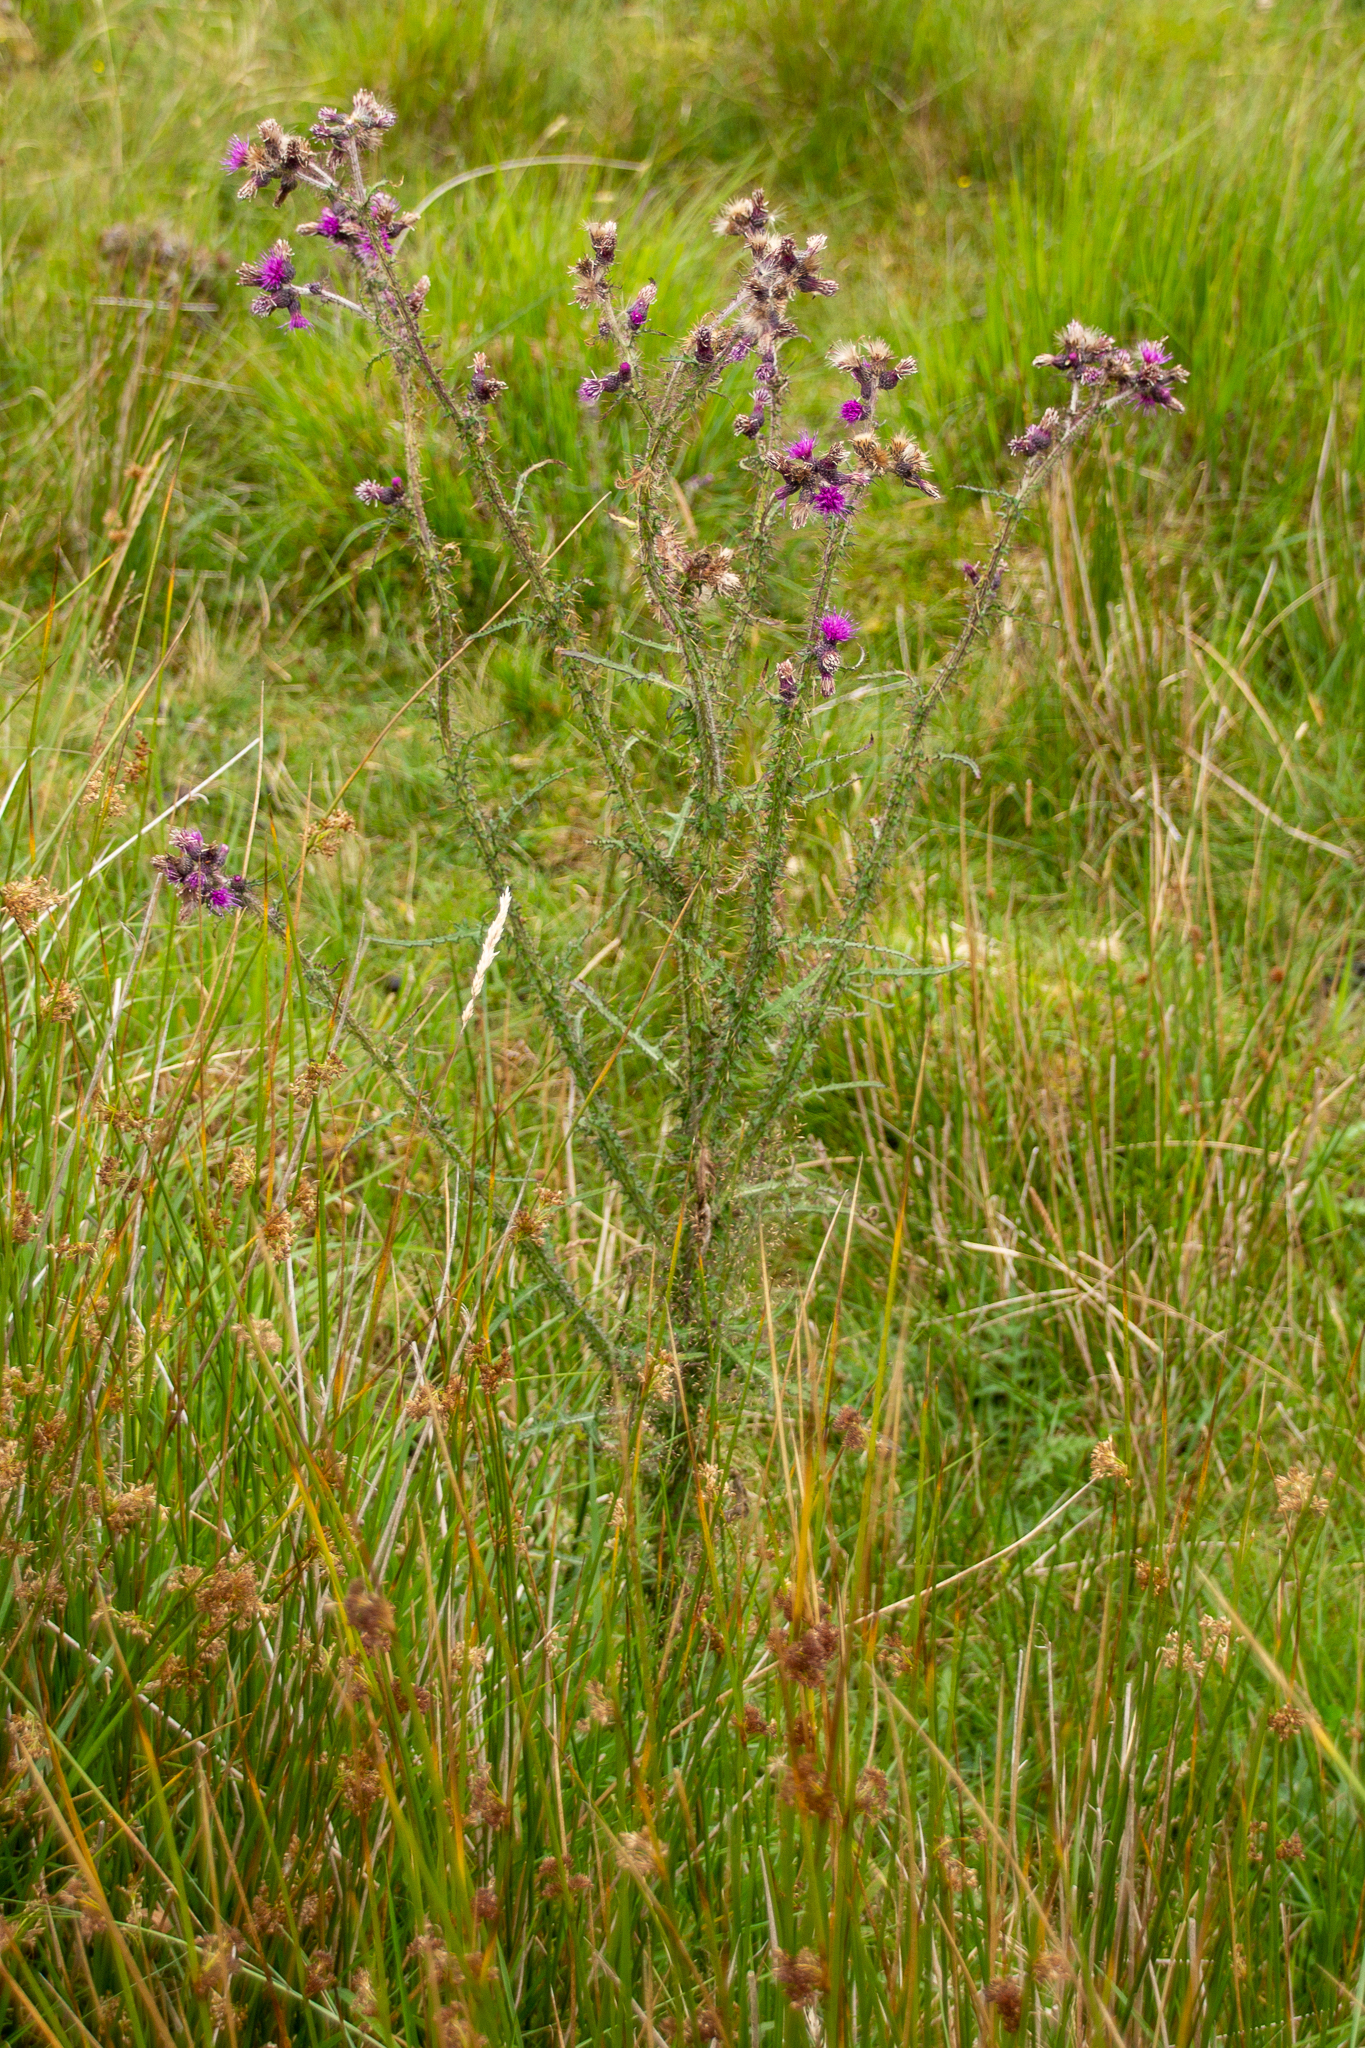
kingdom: Plantae
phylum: Tracheophyta
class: Magnoliopsida
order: Asterales
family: Asteraceae
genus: Cirsium
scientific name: Cirsium palustre
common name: Marsh thistle
